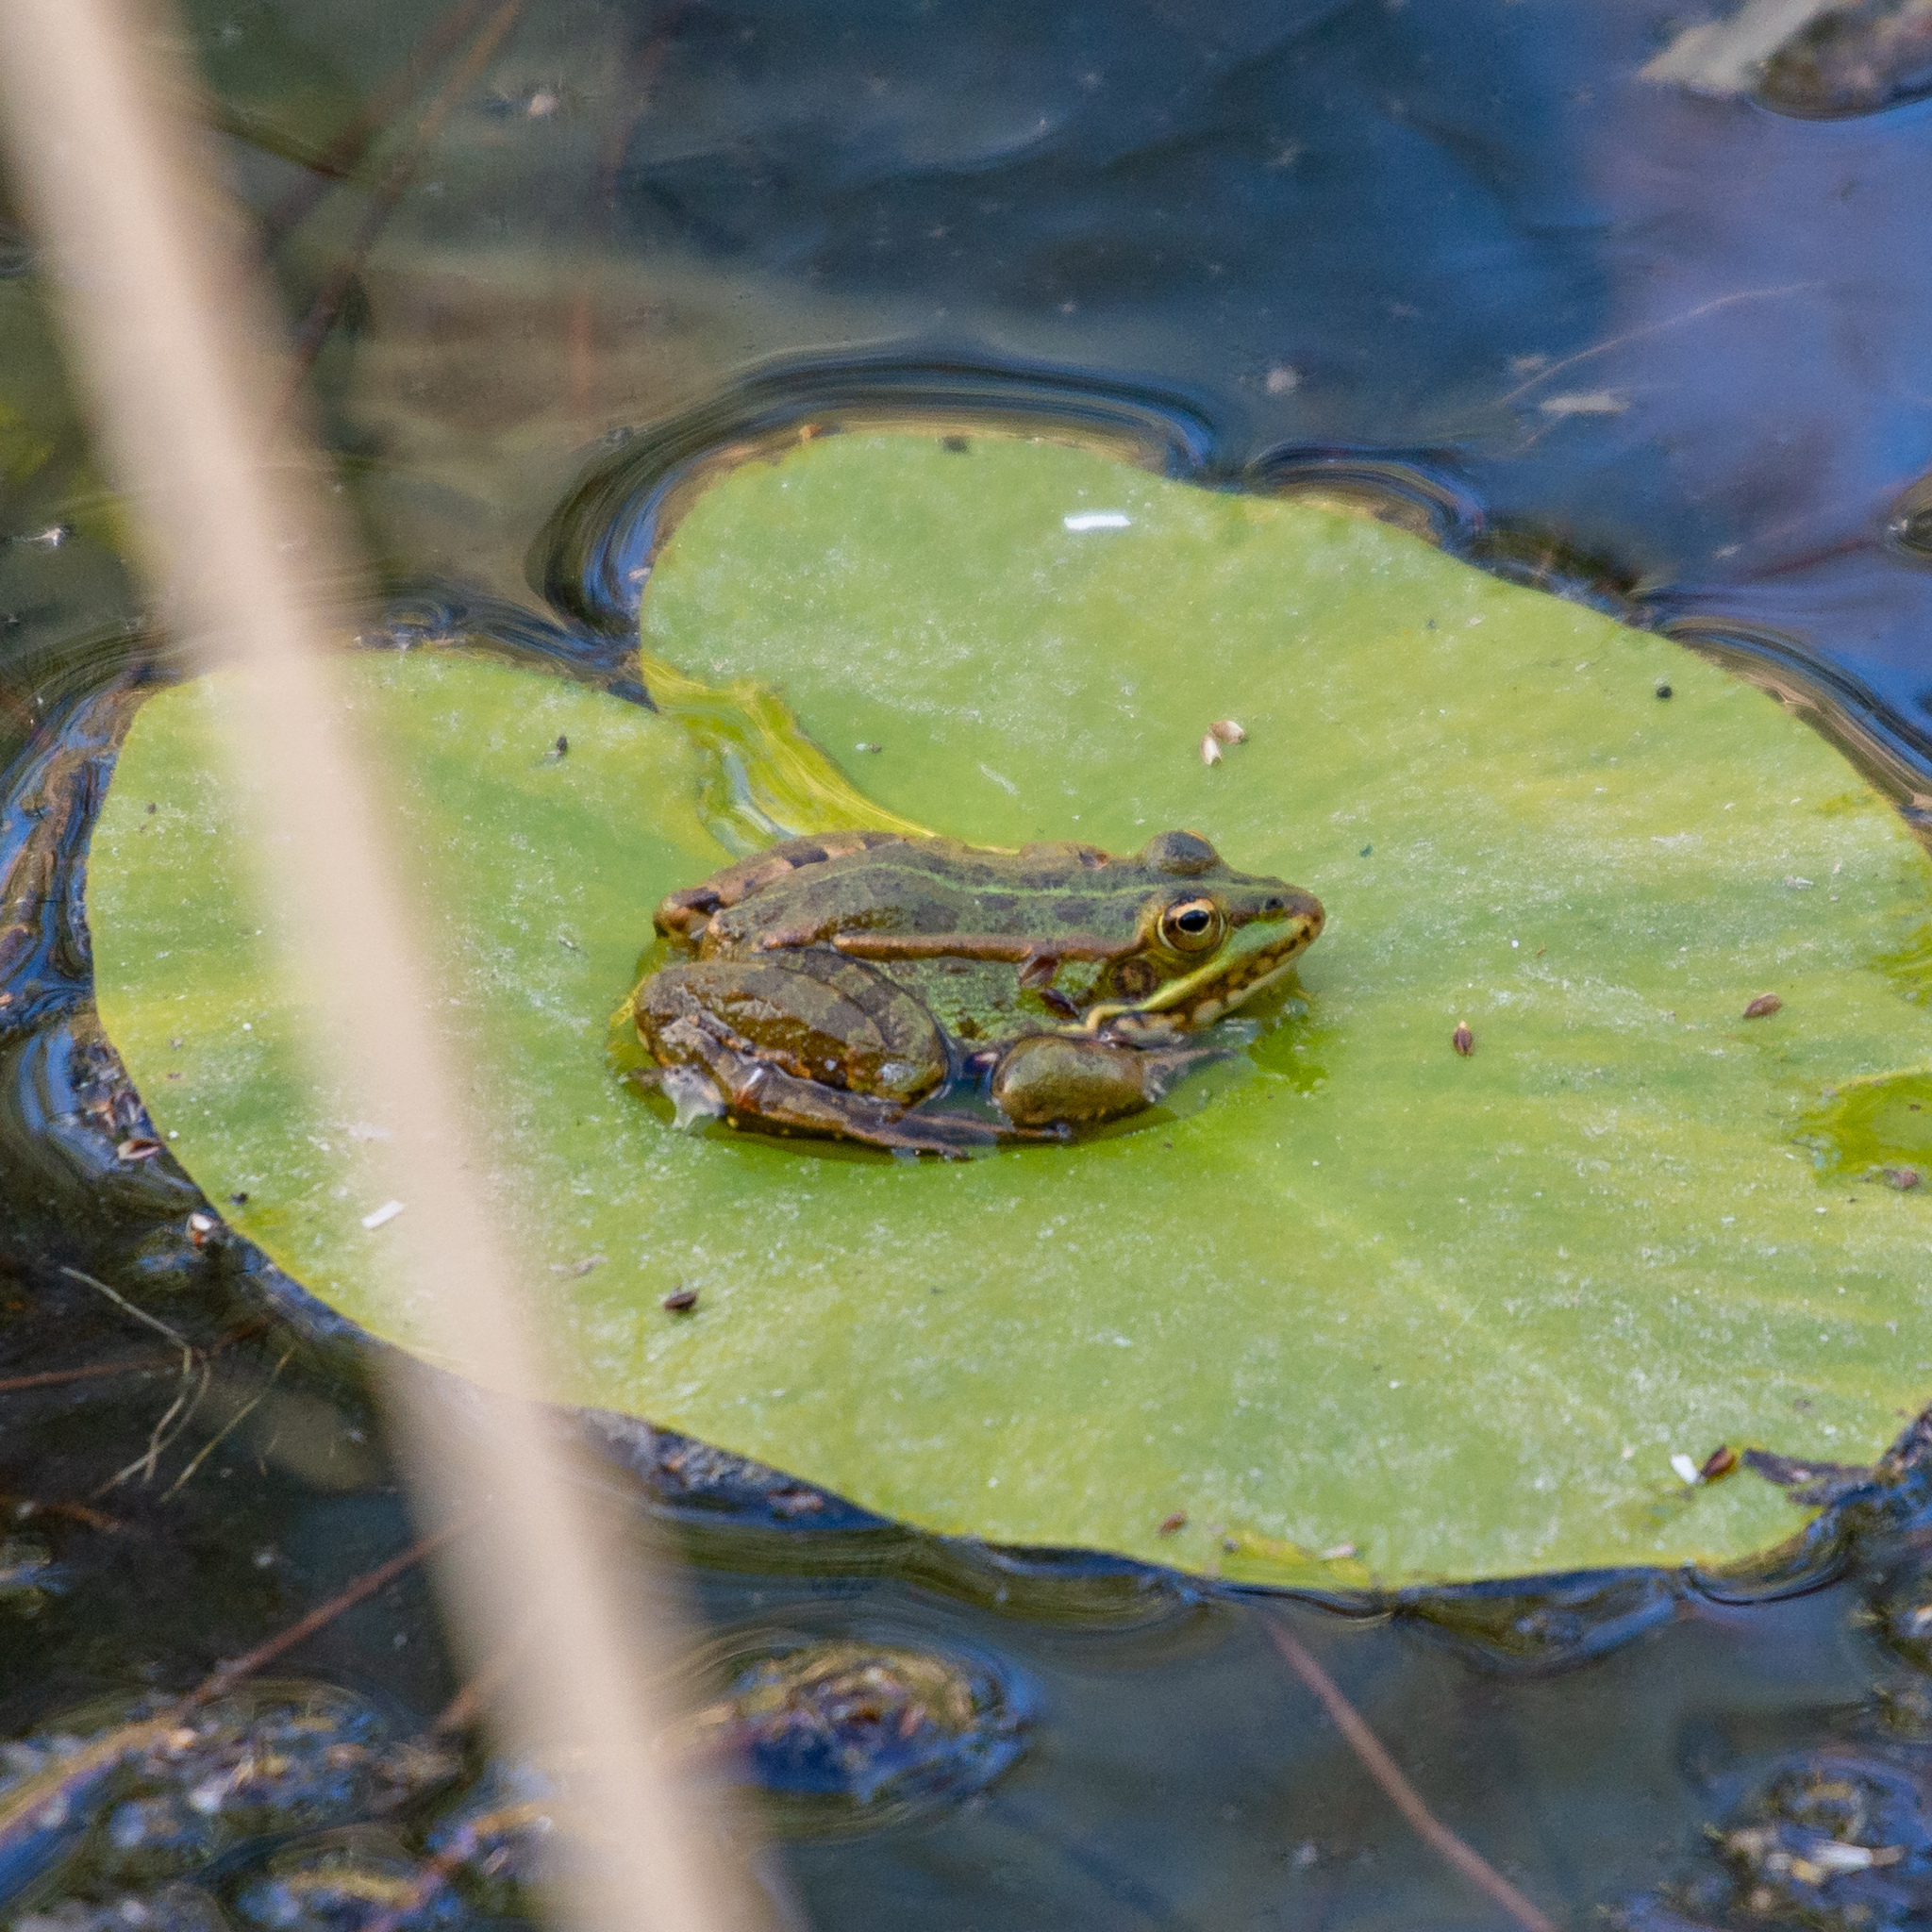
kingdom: Animalia
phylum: Chordata
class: Amphibia
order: Anura
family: Ranidae
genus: Pelophylax
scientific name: Pelophylax perezi
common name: Perez's frog
